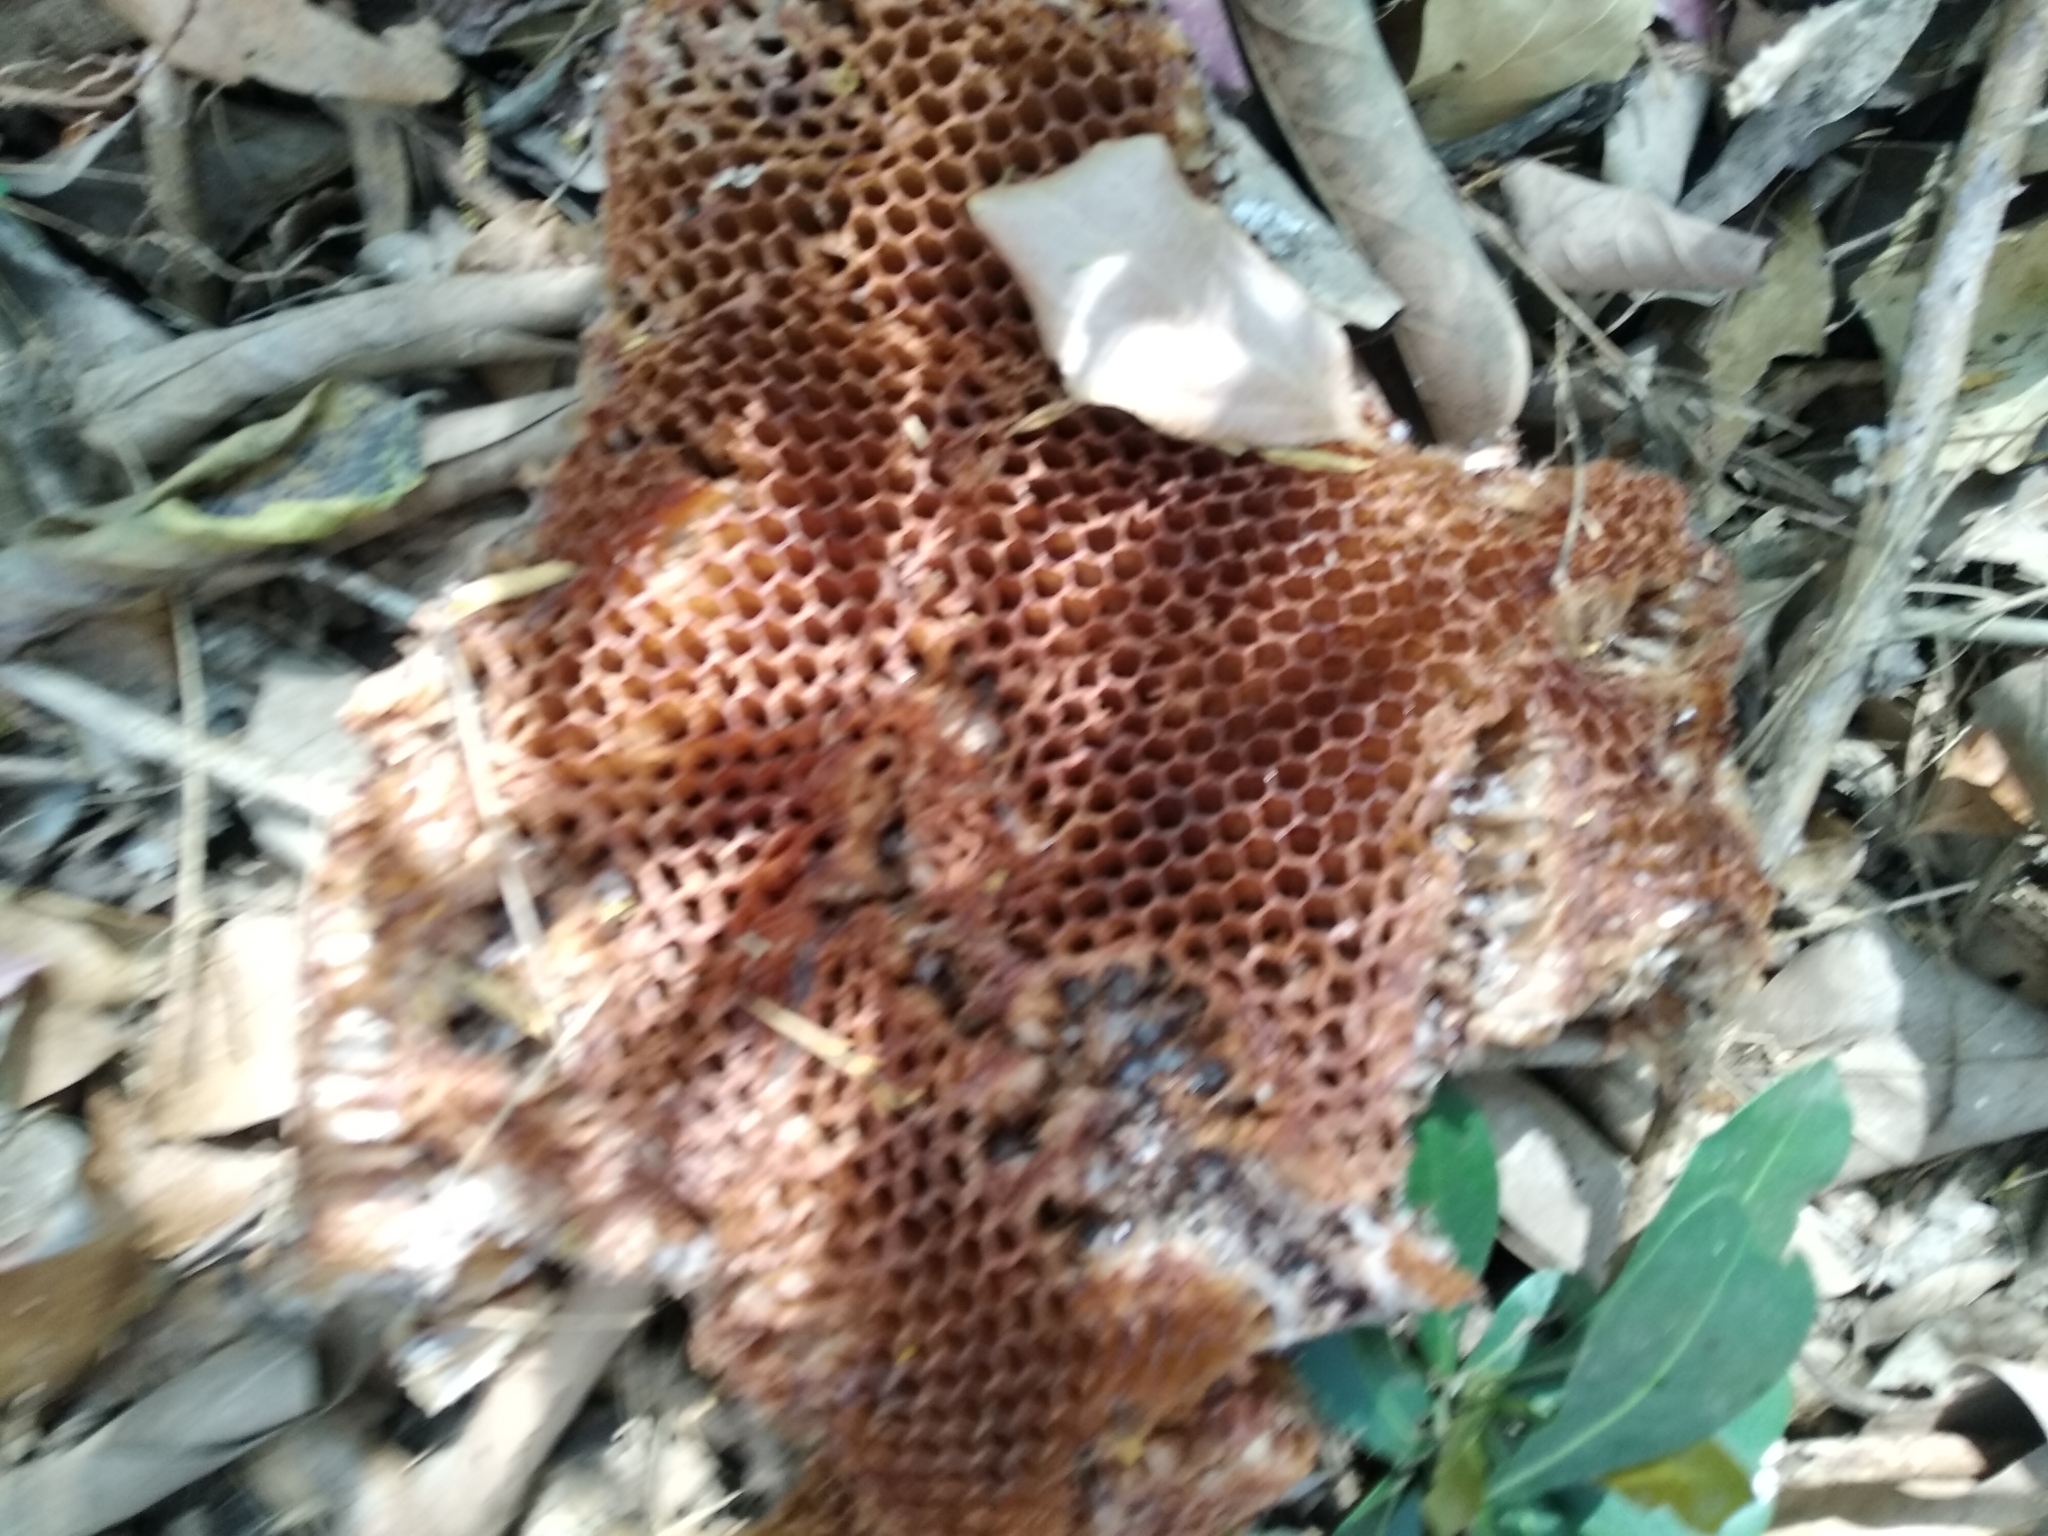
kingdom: Animalia
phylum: Arthropoda
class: Insecta
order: Hymenoptera
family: Apidae
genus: Apis
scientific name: Apis
